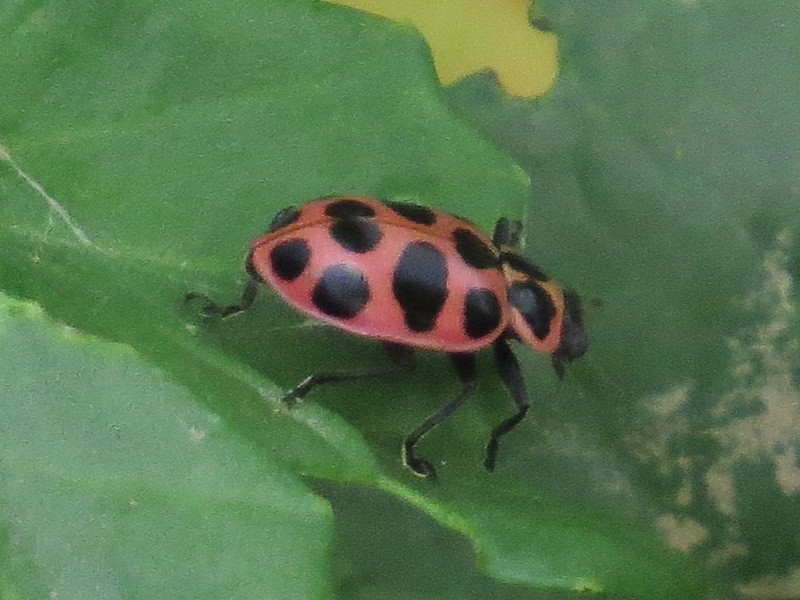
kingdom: Animalia
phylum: Arthropoda
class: Insecta
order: Coleoptera
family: Coccinellidae
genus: Coleomegilla
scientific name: Coleomegilla maculata
